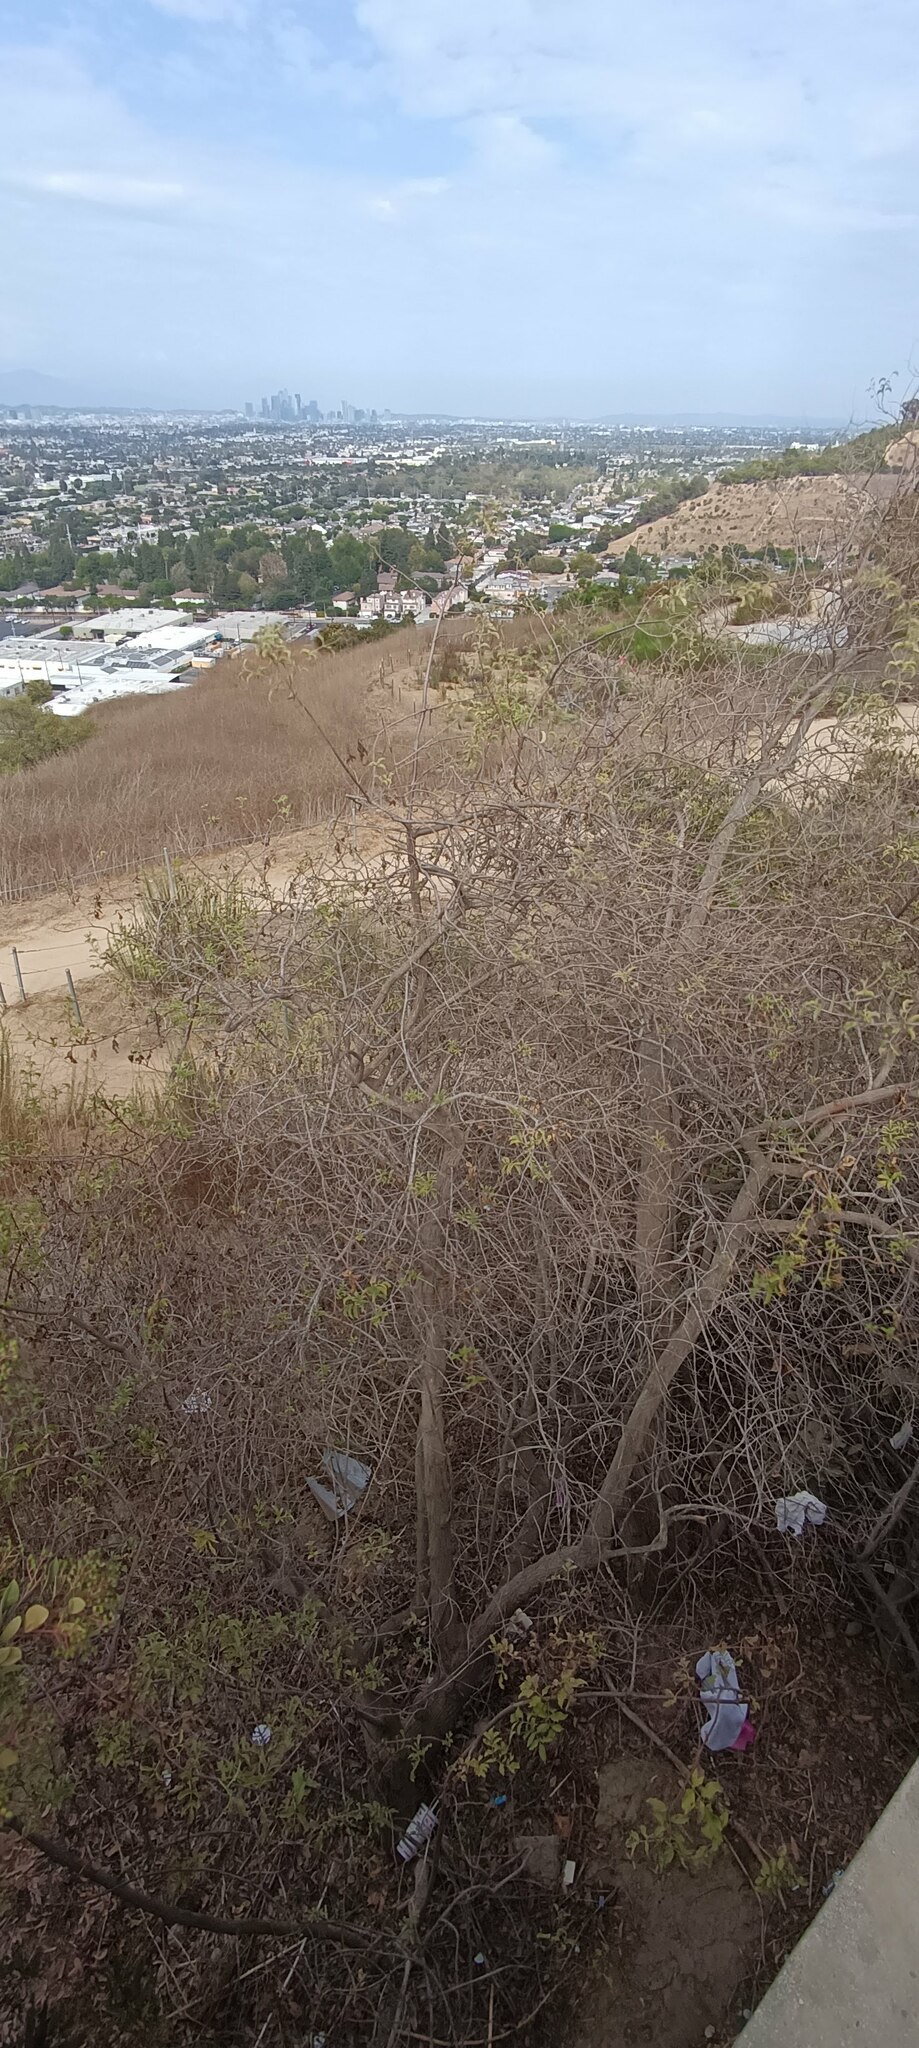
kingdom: Plantae
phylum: Tracheophyta
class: Magnoliopsida
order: Dipsacales
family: Viburnaceae
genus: Sambucus
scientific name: Sambucus cerulea
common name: Blue elder
